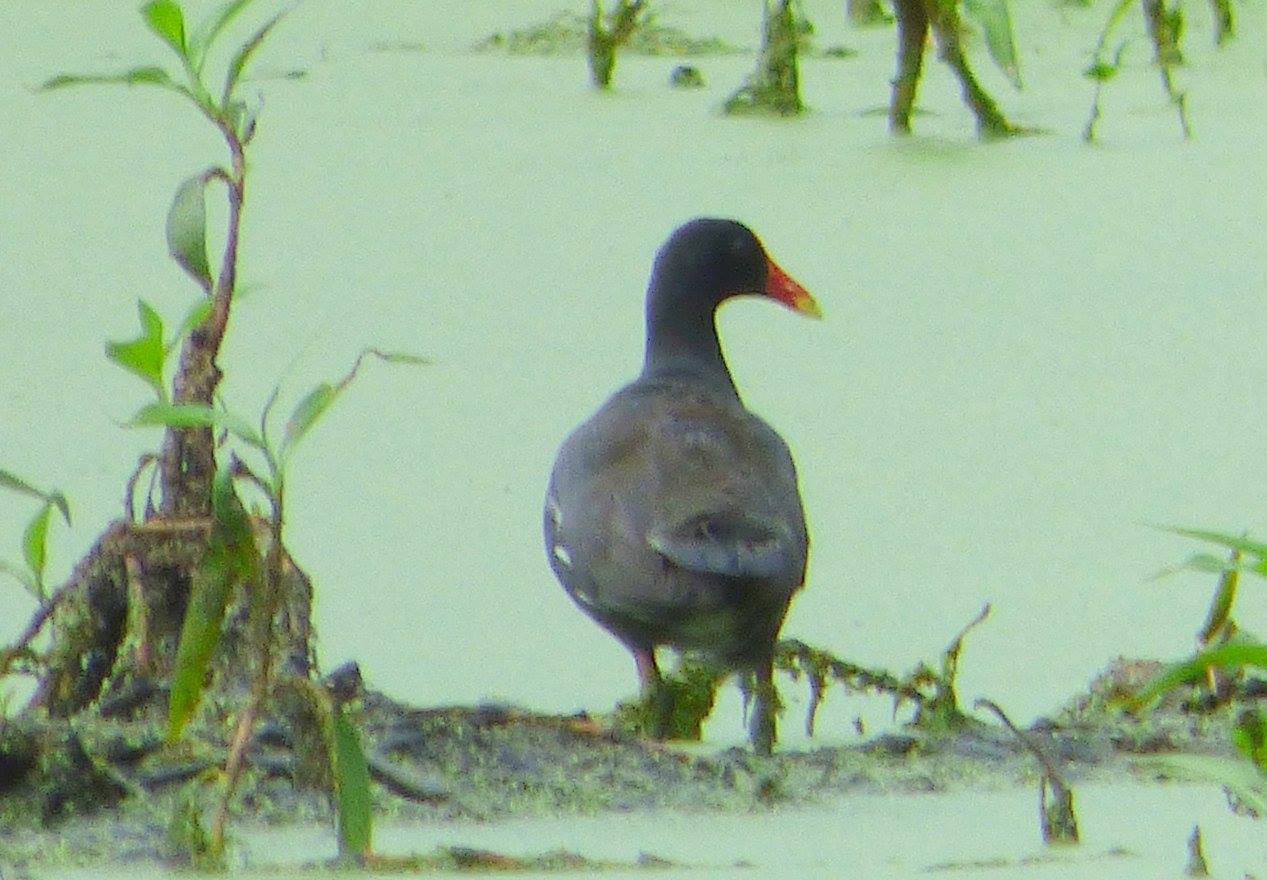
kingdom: Animalia
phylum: Chordata
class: Aves
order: Gruiformes
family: Rallidae
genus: Gallinula
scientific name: Gallinula chloropus
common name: Common moorhen
